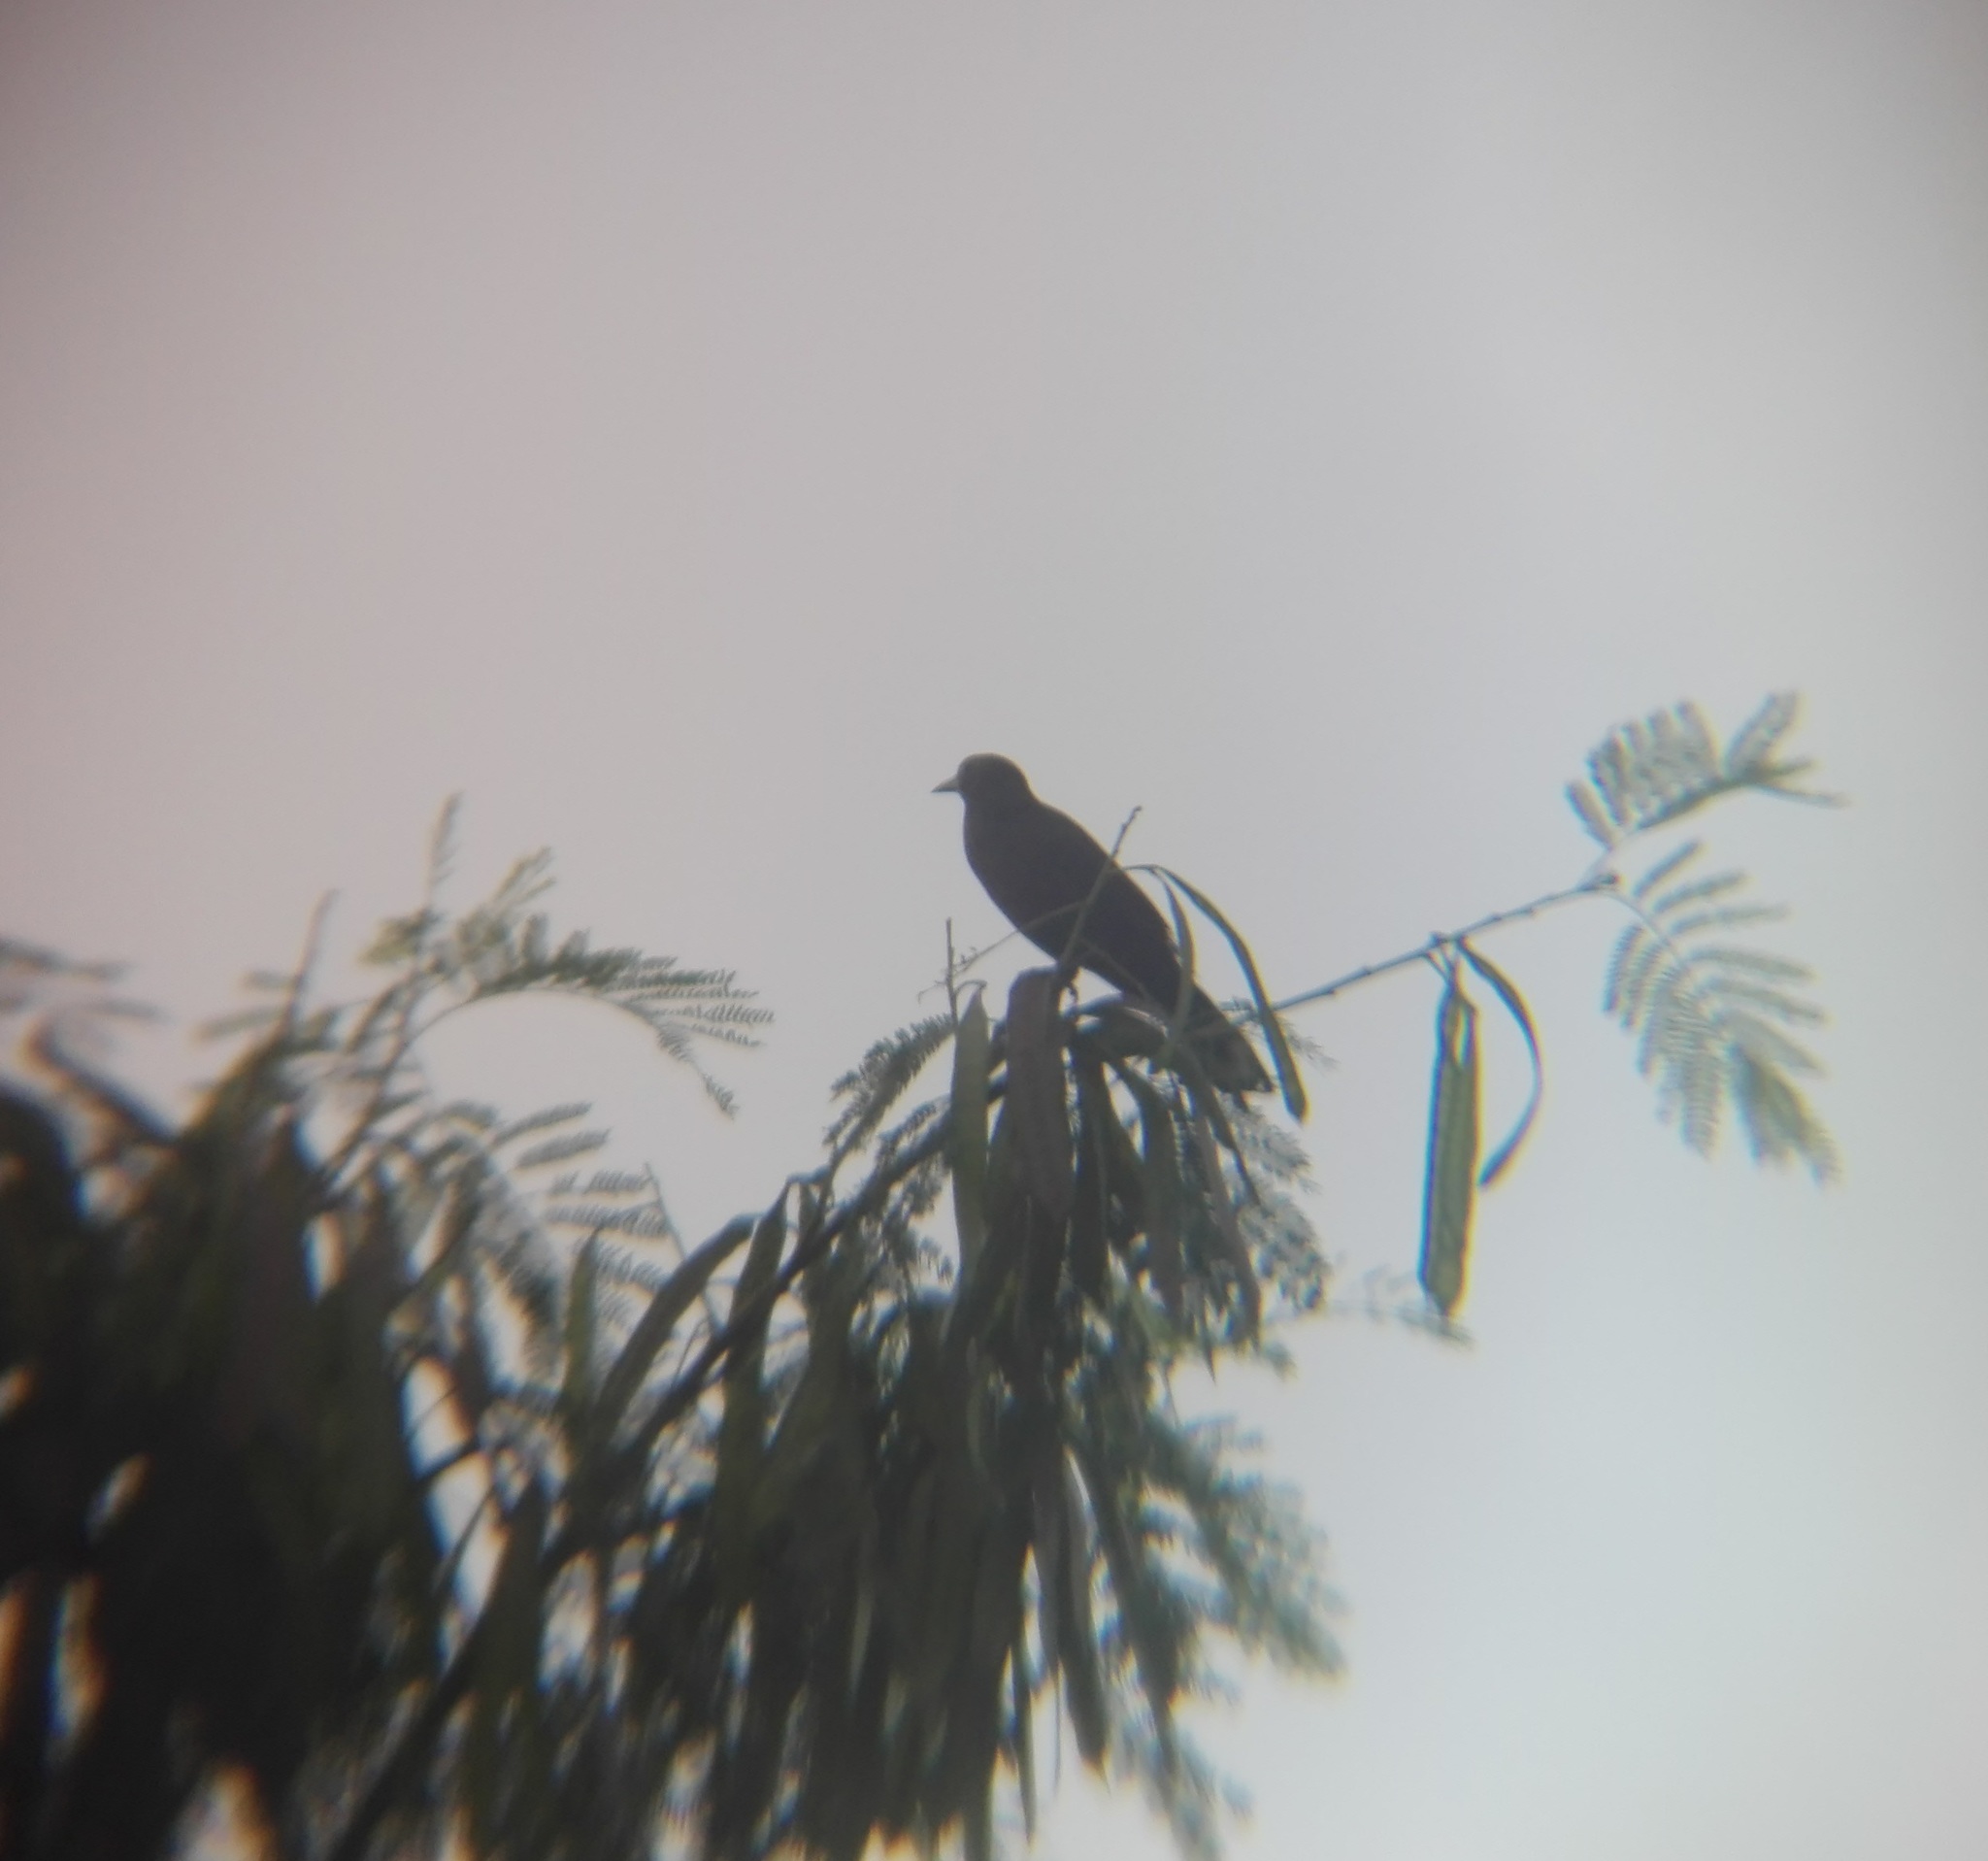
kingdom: Animalia
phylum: Chordata
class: Aves
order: Passeriformes
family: Icteridae
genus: Quiscalus
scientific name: Quiscalus mexicanus
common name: Great-tailed grackle
